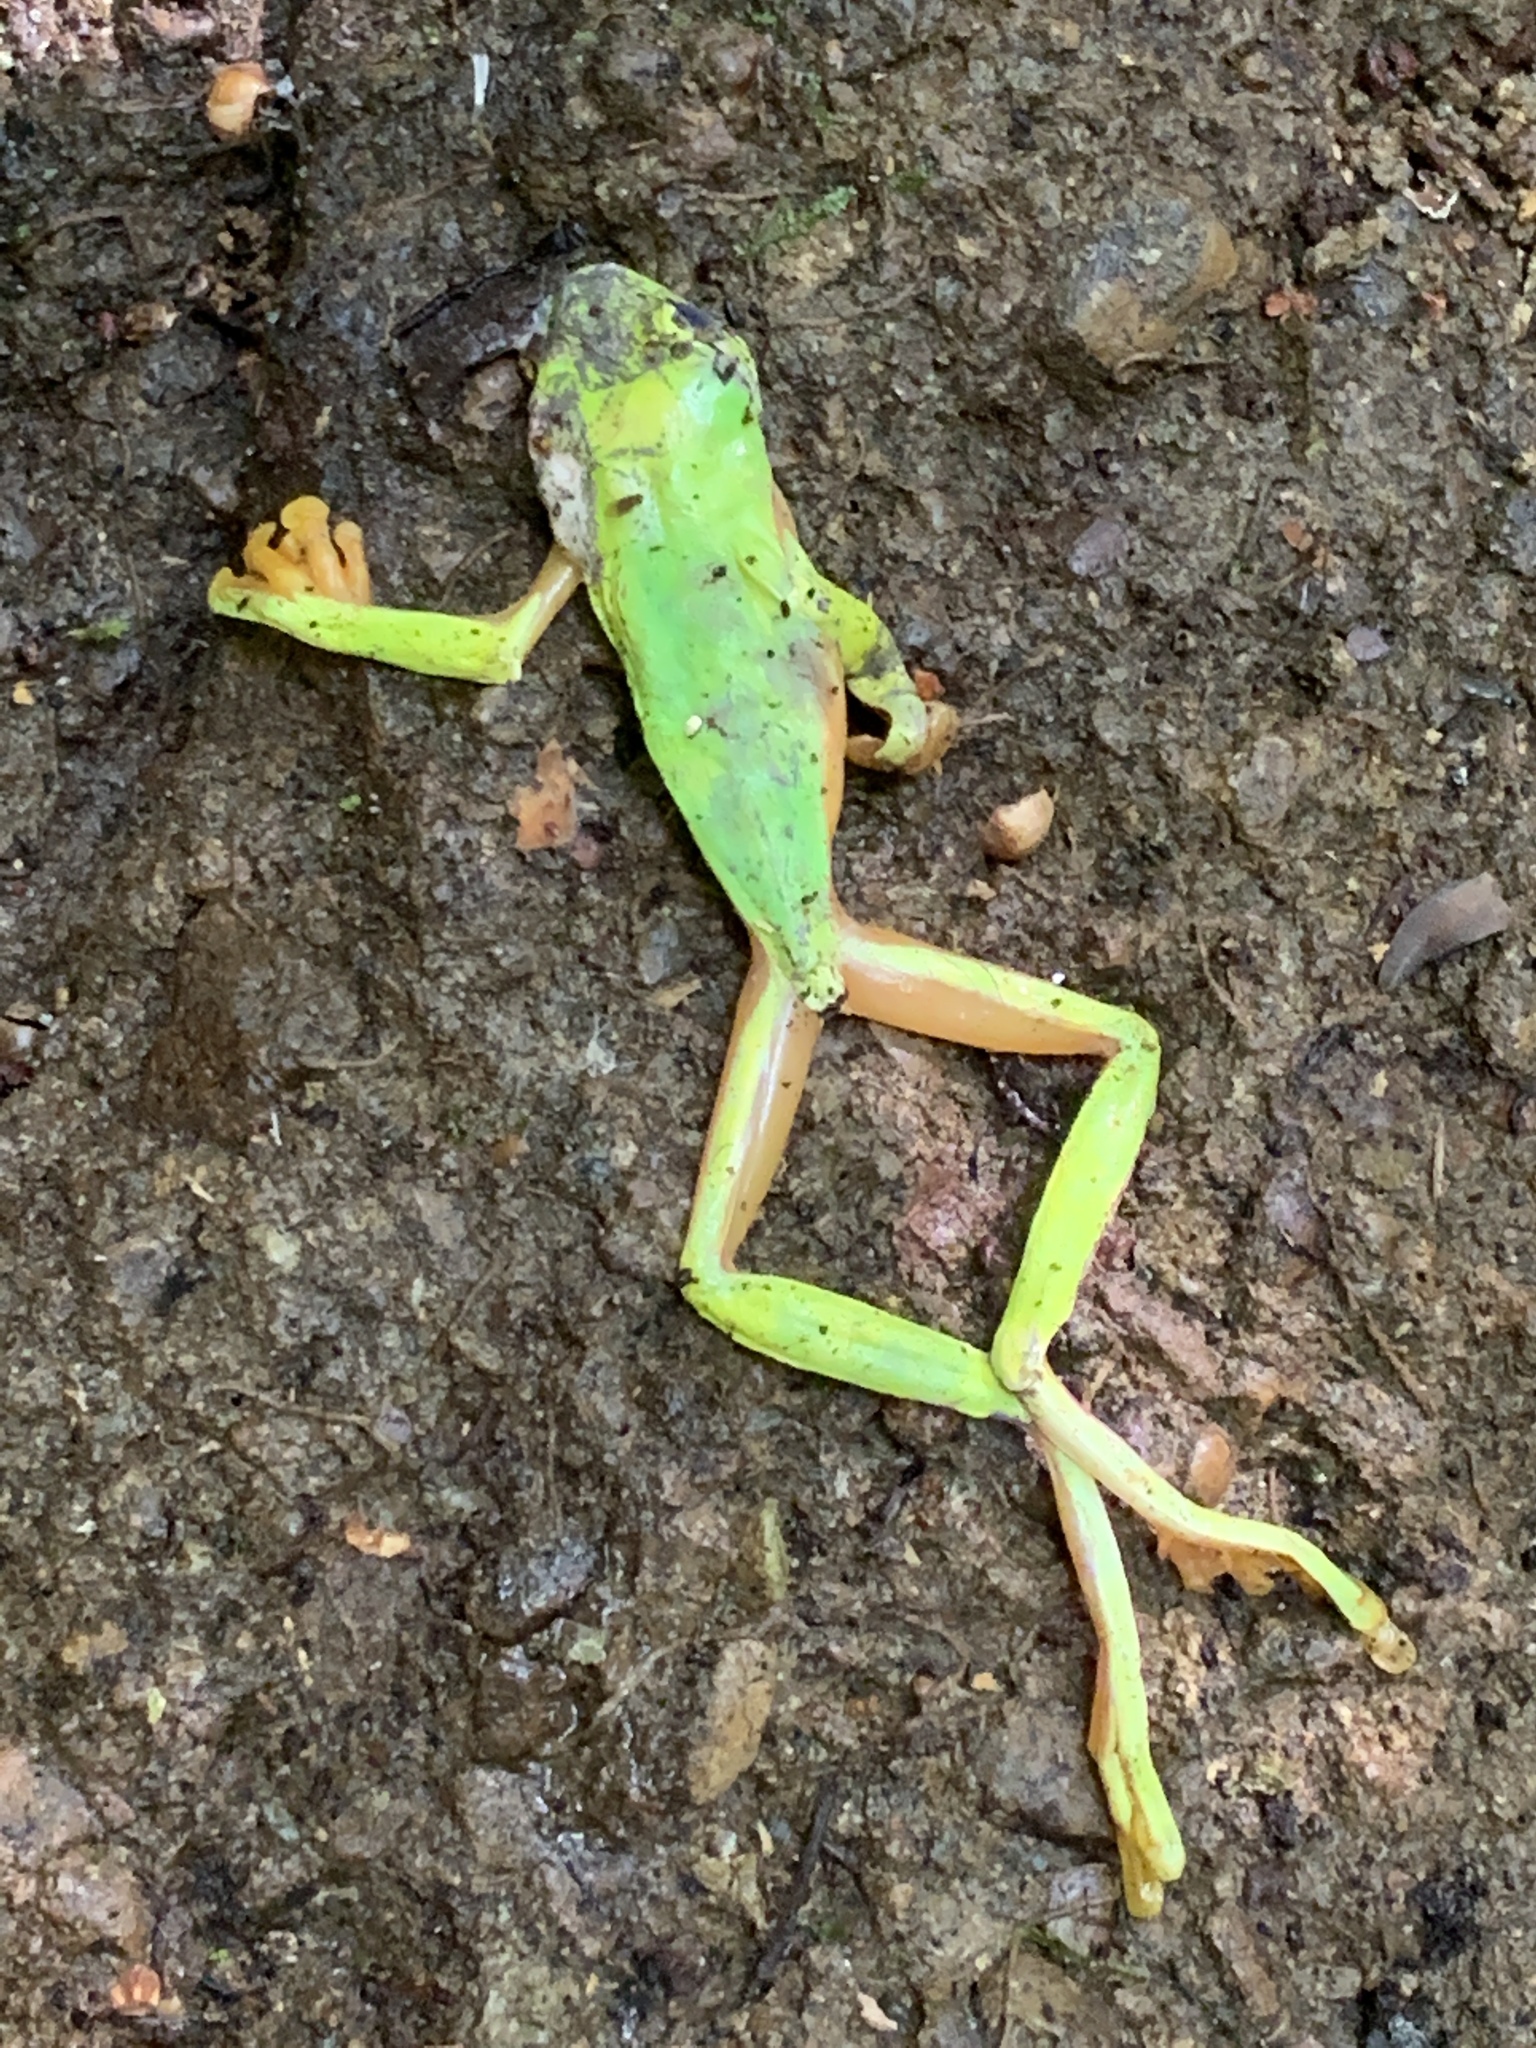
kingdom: Animalia
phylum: Chordata
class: Amphibia
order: Anura
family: Phyllomedusidae
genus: Agalychnis
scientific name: Agalychnis spurrelli
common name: Gliding leaf frog
